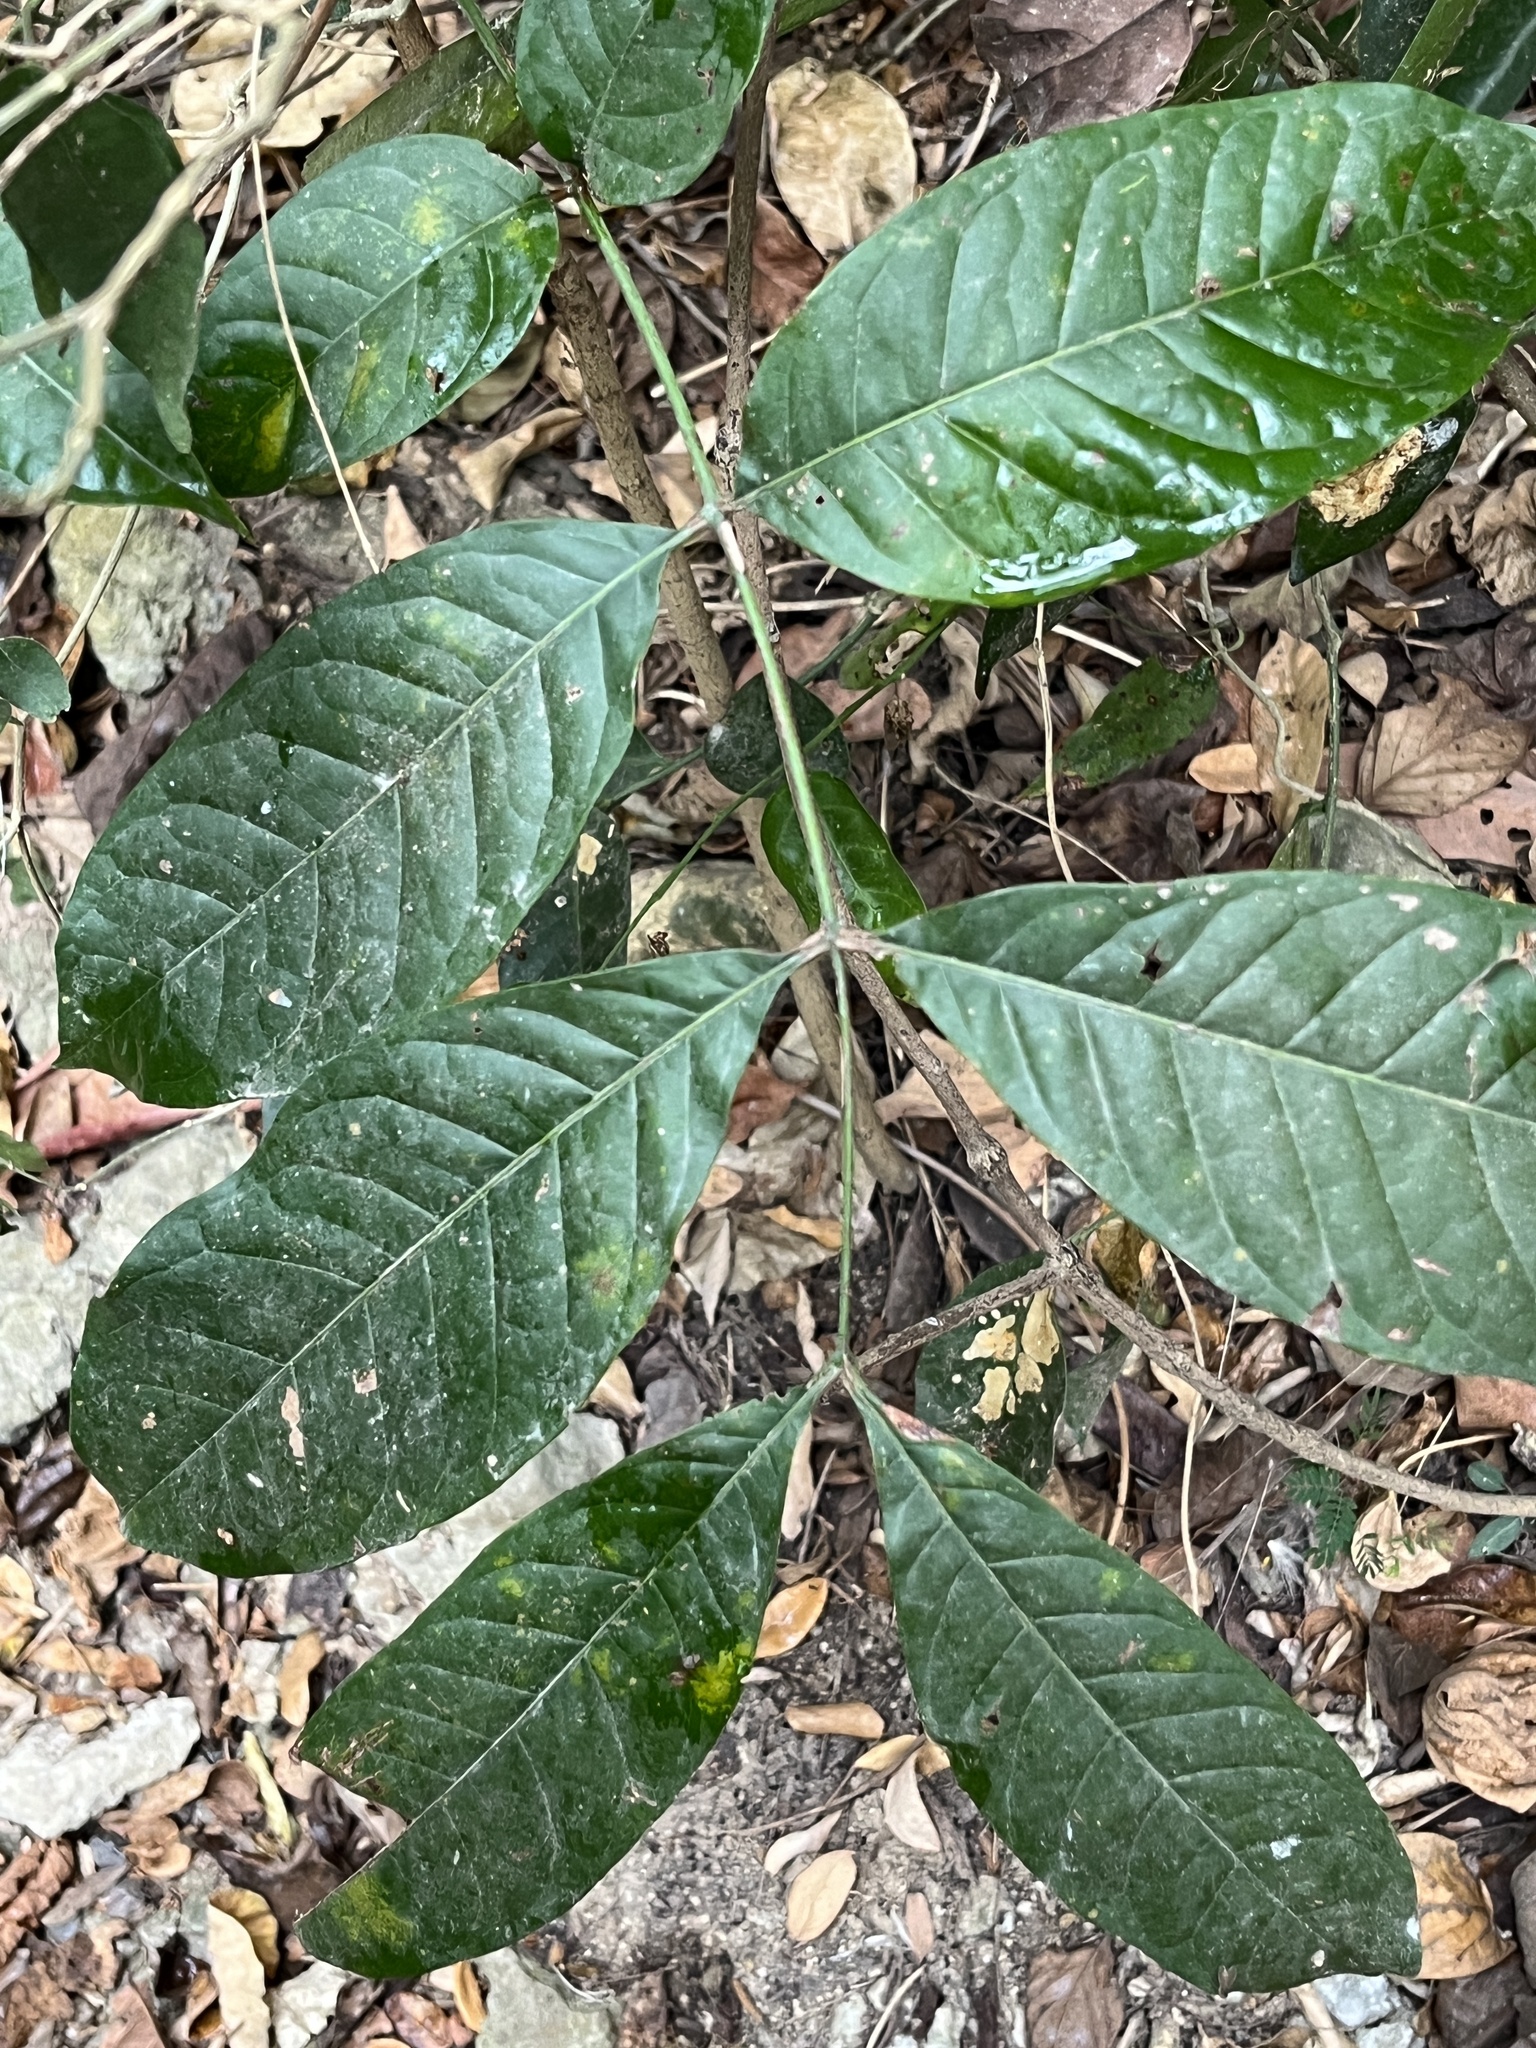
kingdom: Plantae
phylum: Tracheophyta
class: Magnoliopsida
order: Sapindales
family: Meliaceae
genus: Swietenia
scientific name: Swietenia macrophylla
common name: Honduras mahogany
